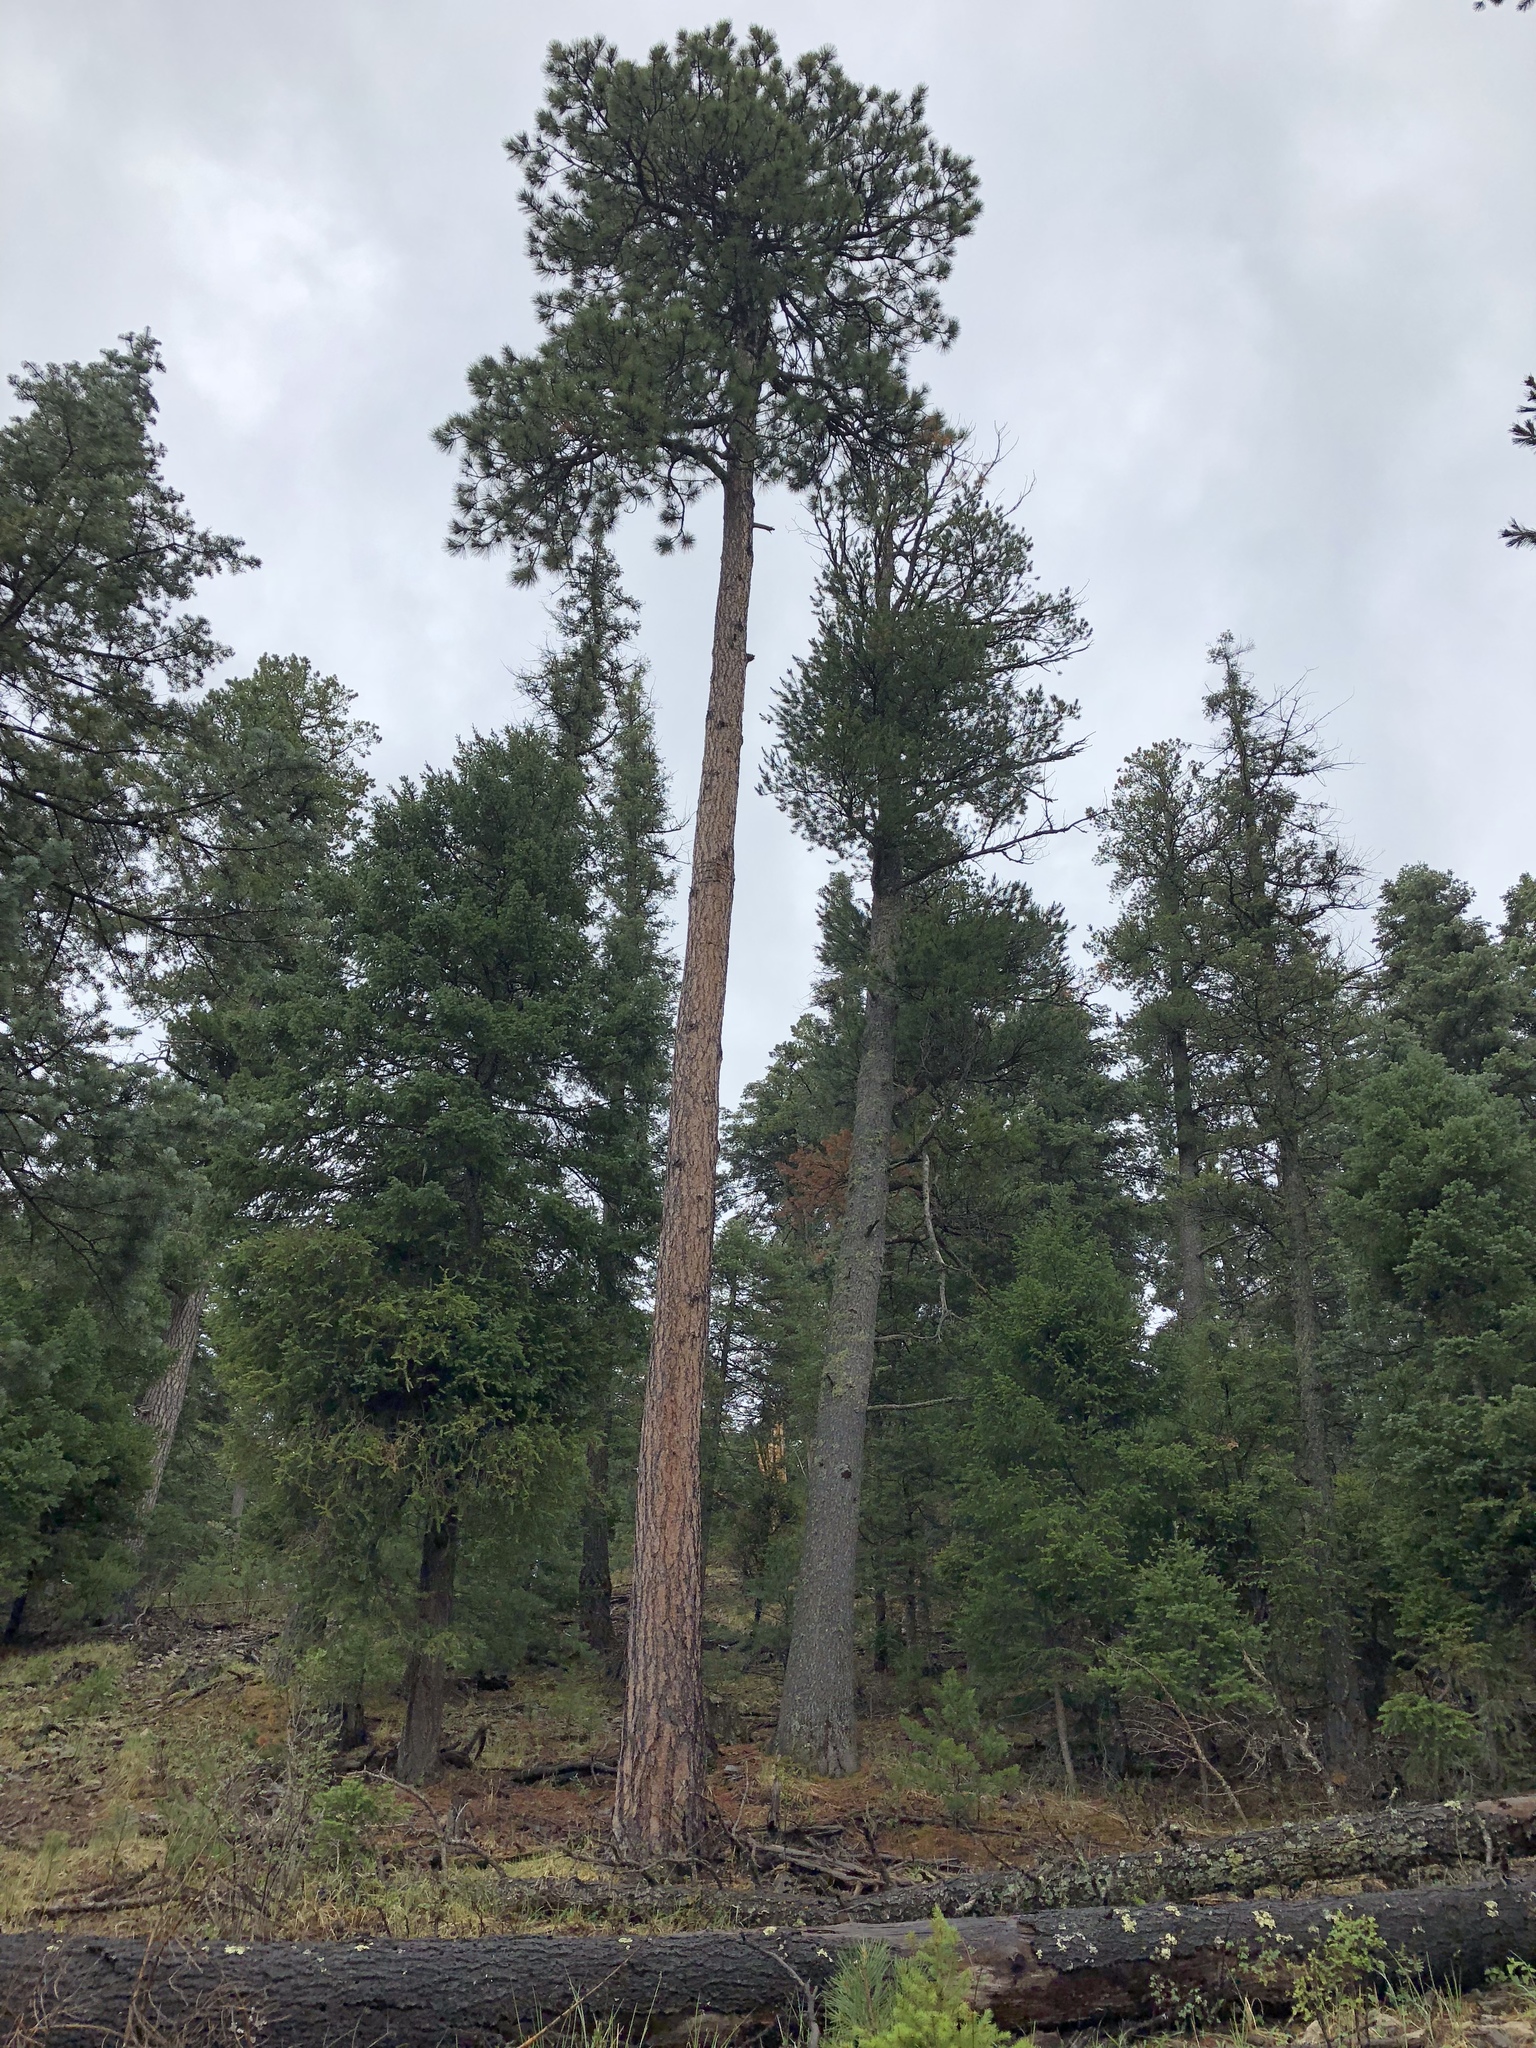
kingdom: Plantae
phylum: Tracheophyta
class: Pinopsida
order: Pinales
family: Pinaceae
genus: Pinus
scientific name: Pinus ponderosa
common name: Western yellow-pine
